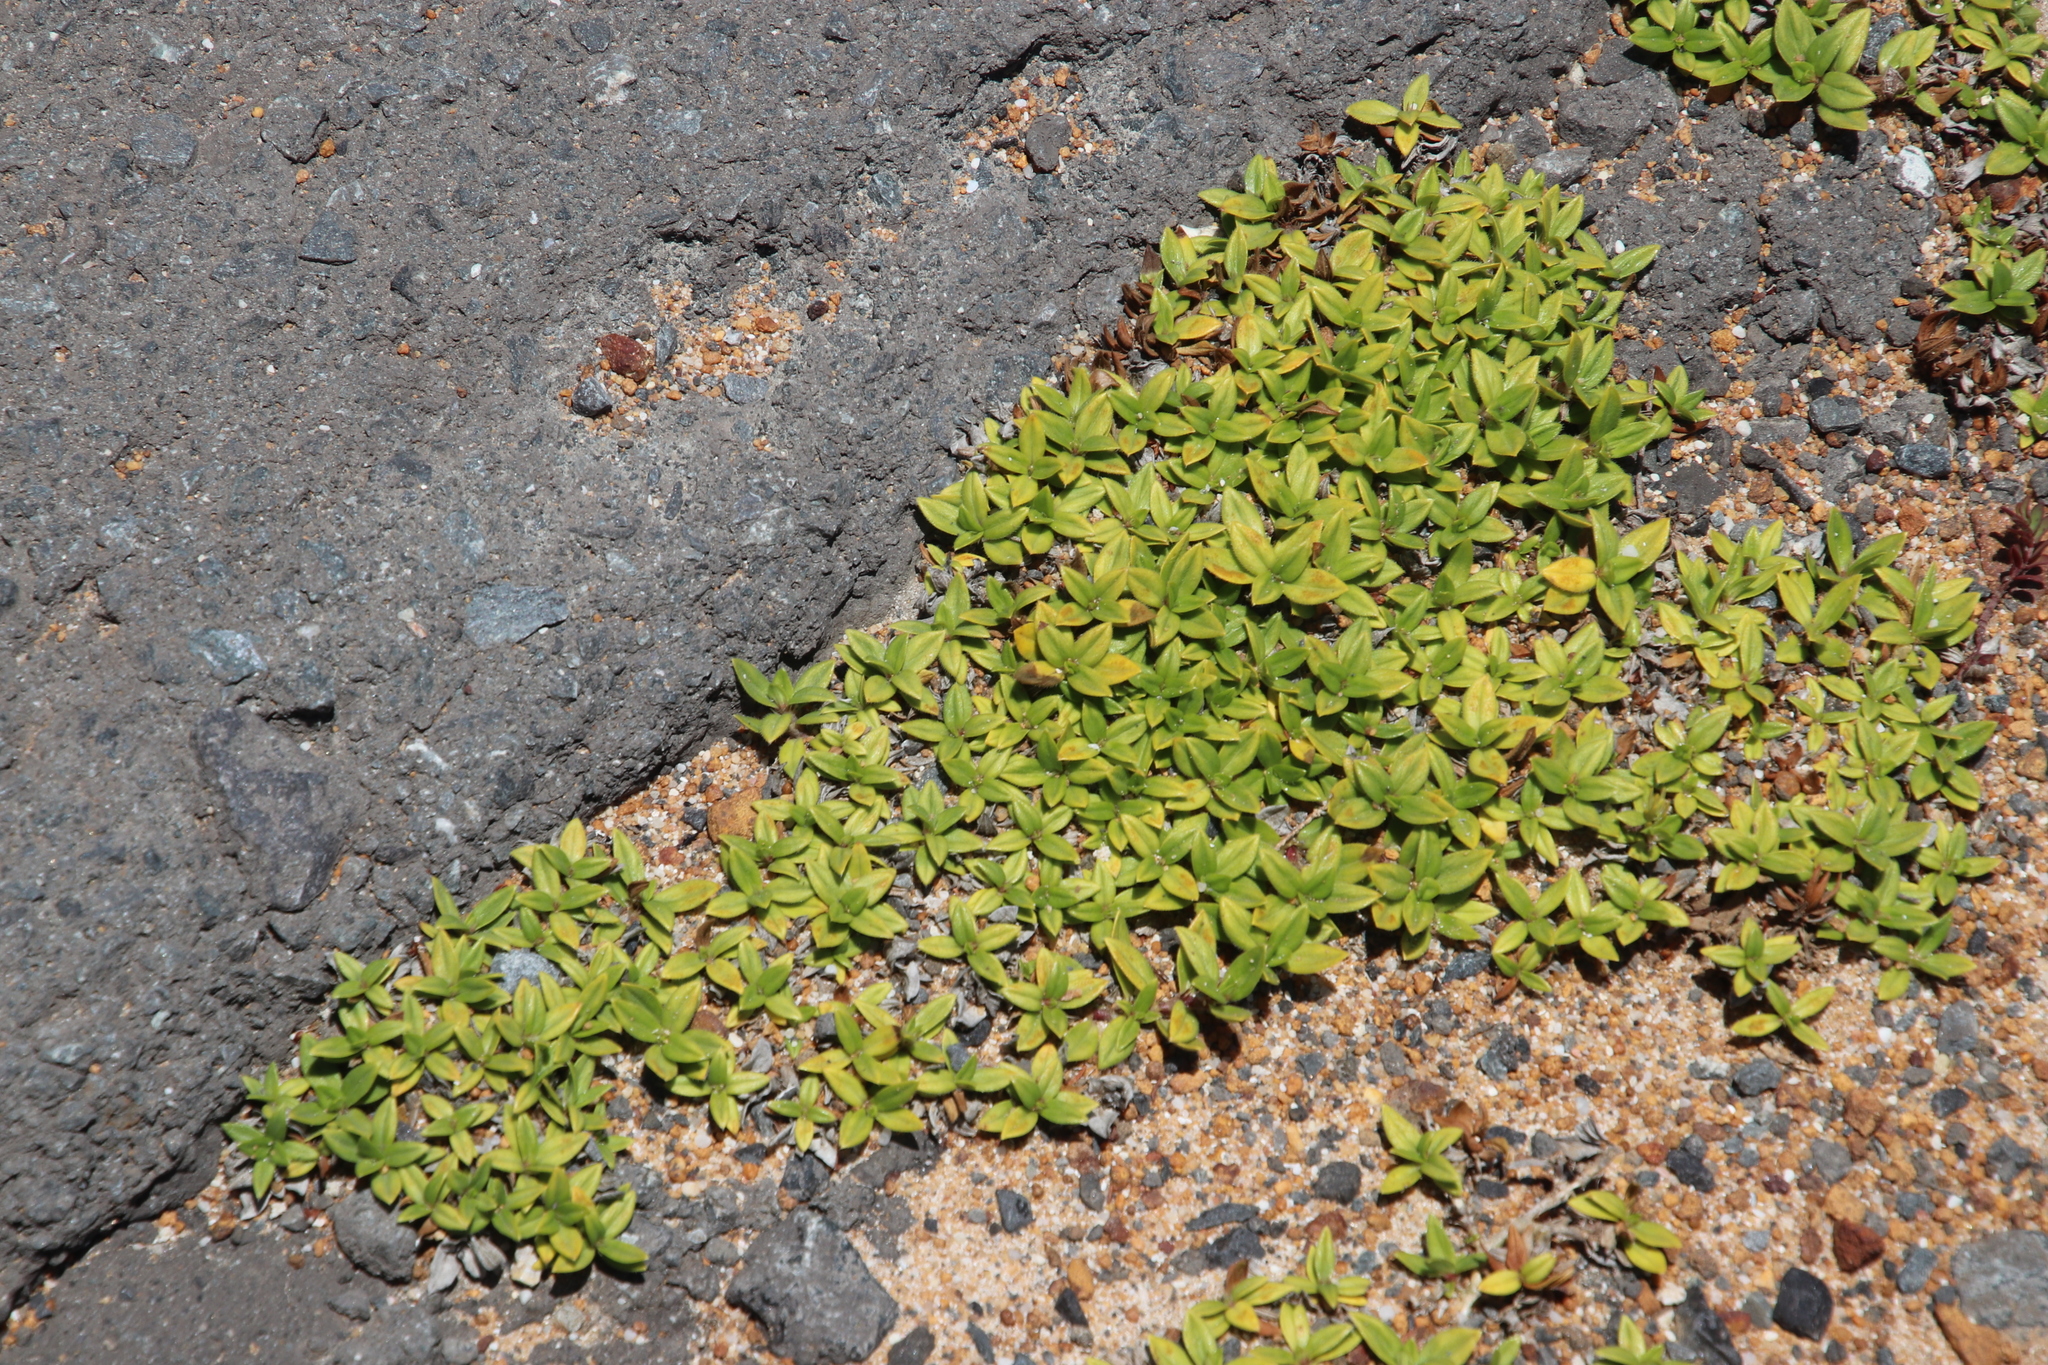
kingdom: Plantae
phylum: Tracheophyta
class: Magnoliopsida
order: Gentianales
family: Rubiaceae
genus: Richardia
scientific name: Richardia brasiliensis
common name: Tropical mexican clover
